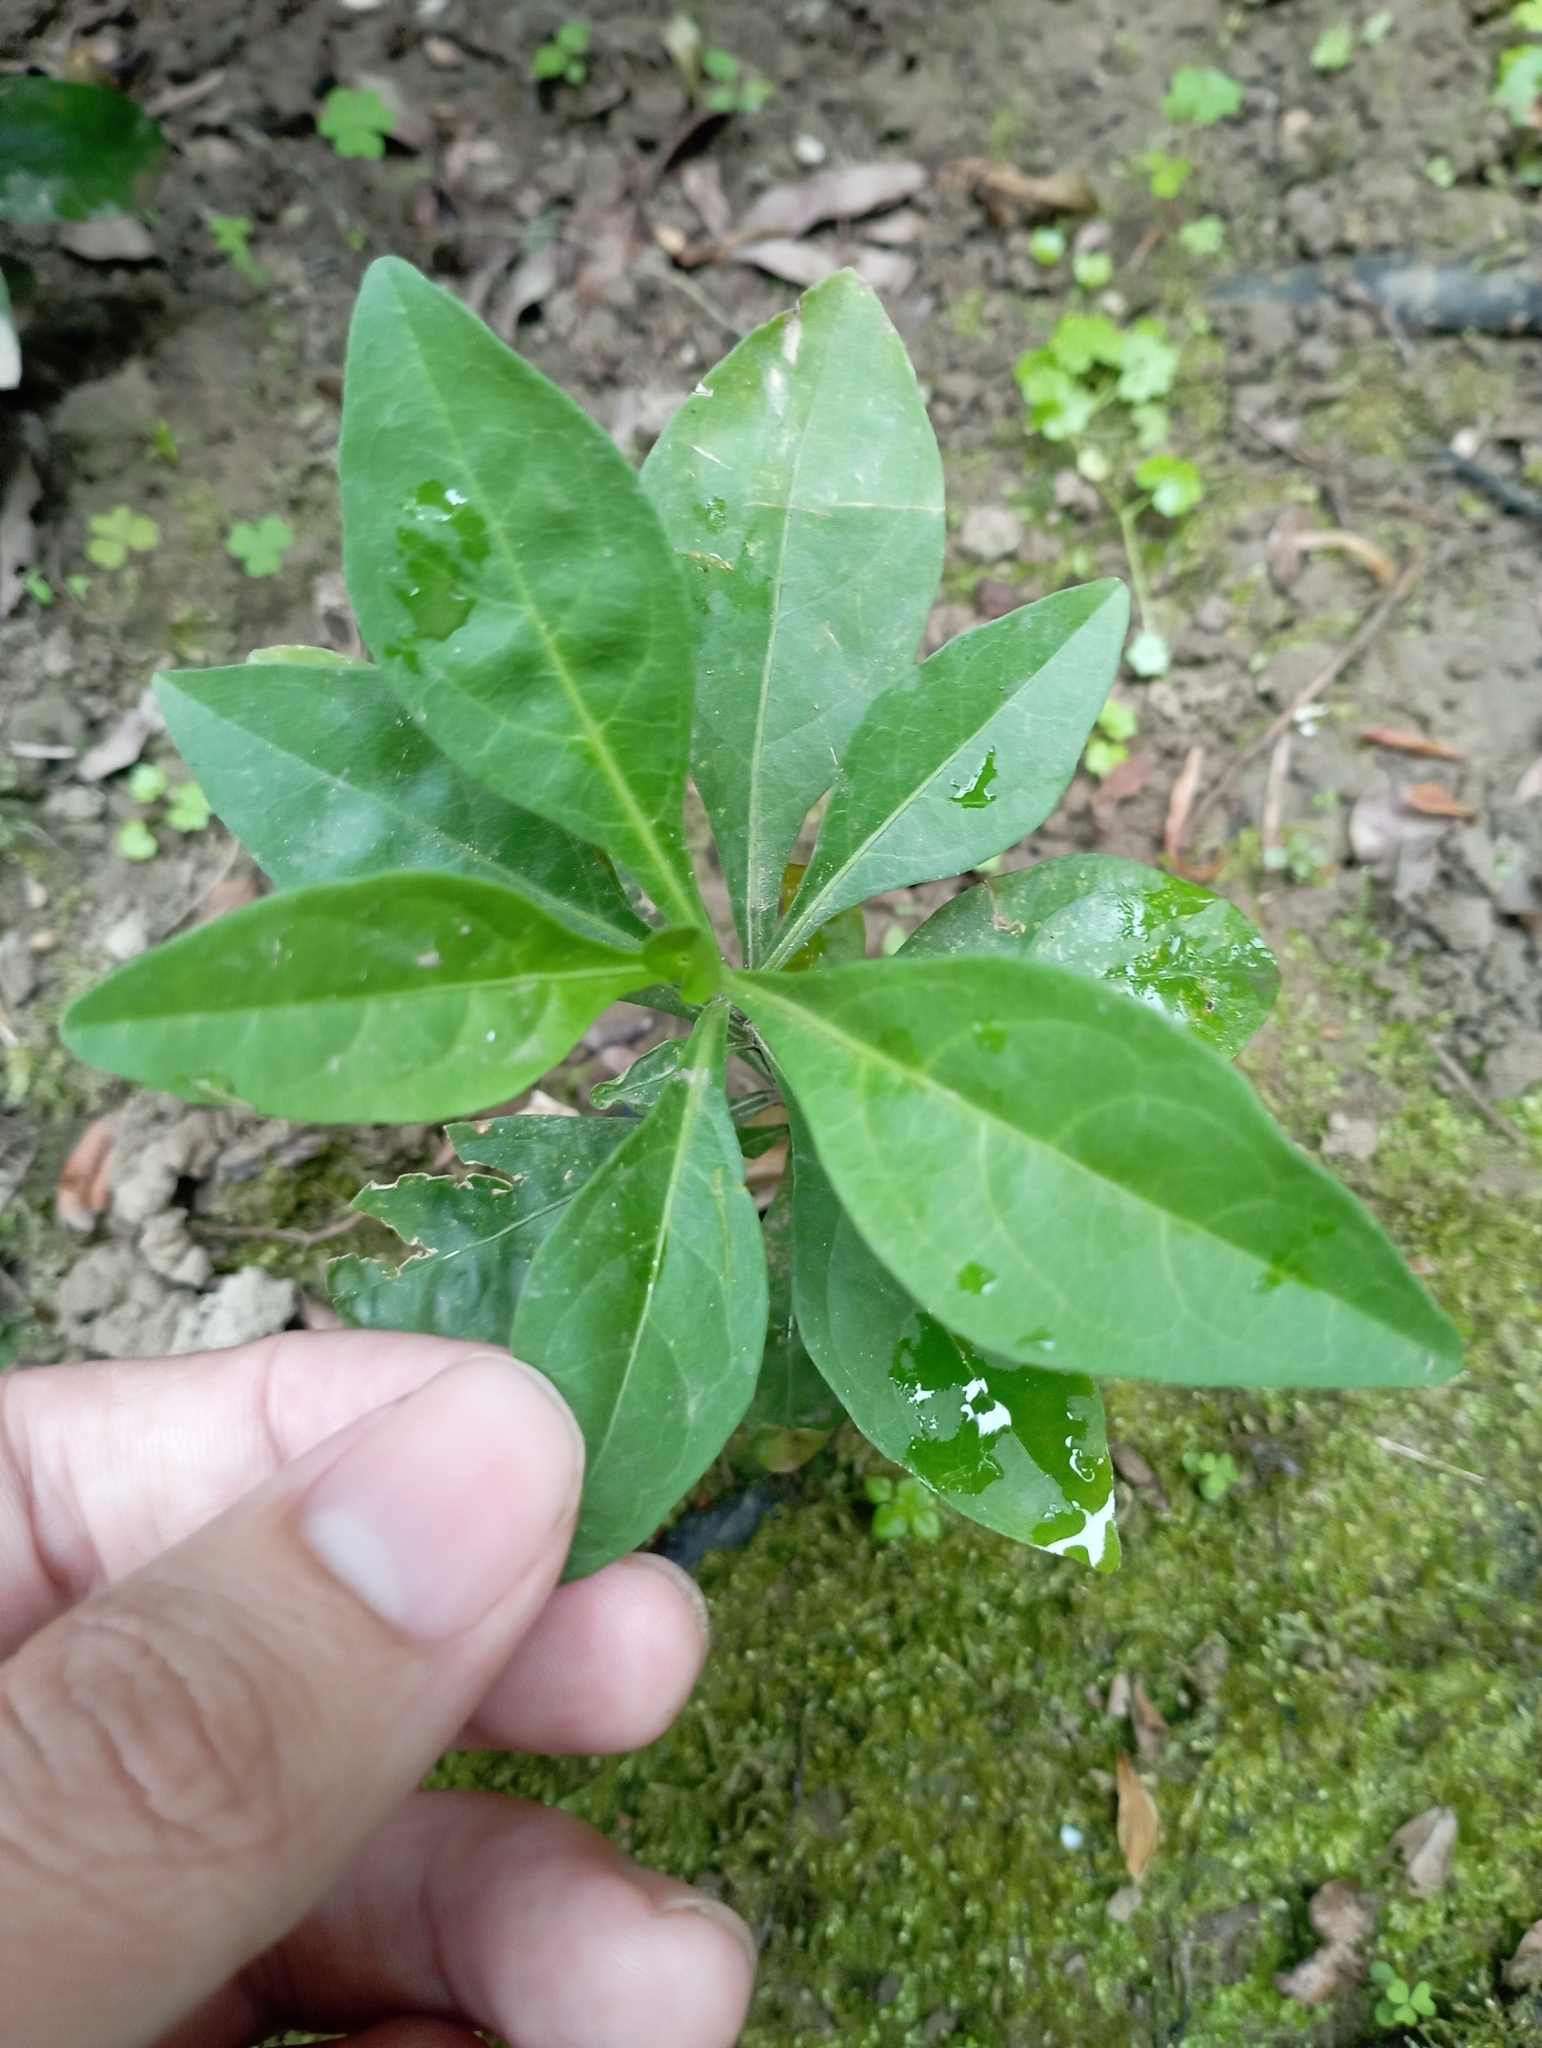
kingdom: Plantae
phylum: Tracheophyta
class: Magnoliopsida
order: Solanales
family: Solanaceae
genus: Solanum
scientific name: Solanum diphyllum
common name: Twoleaf nightshade
